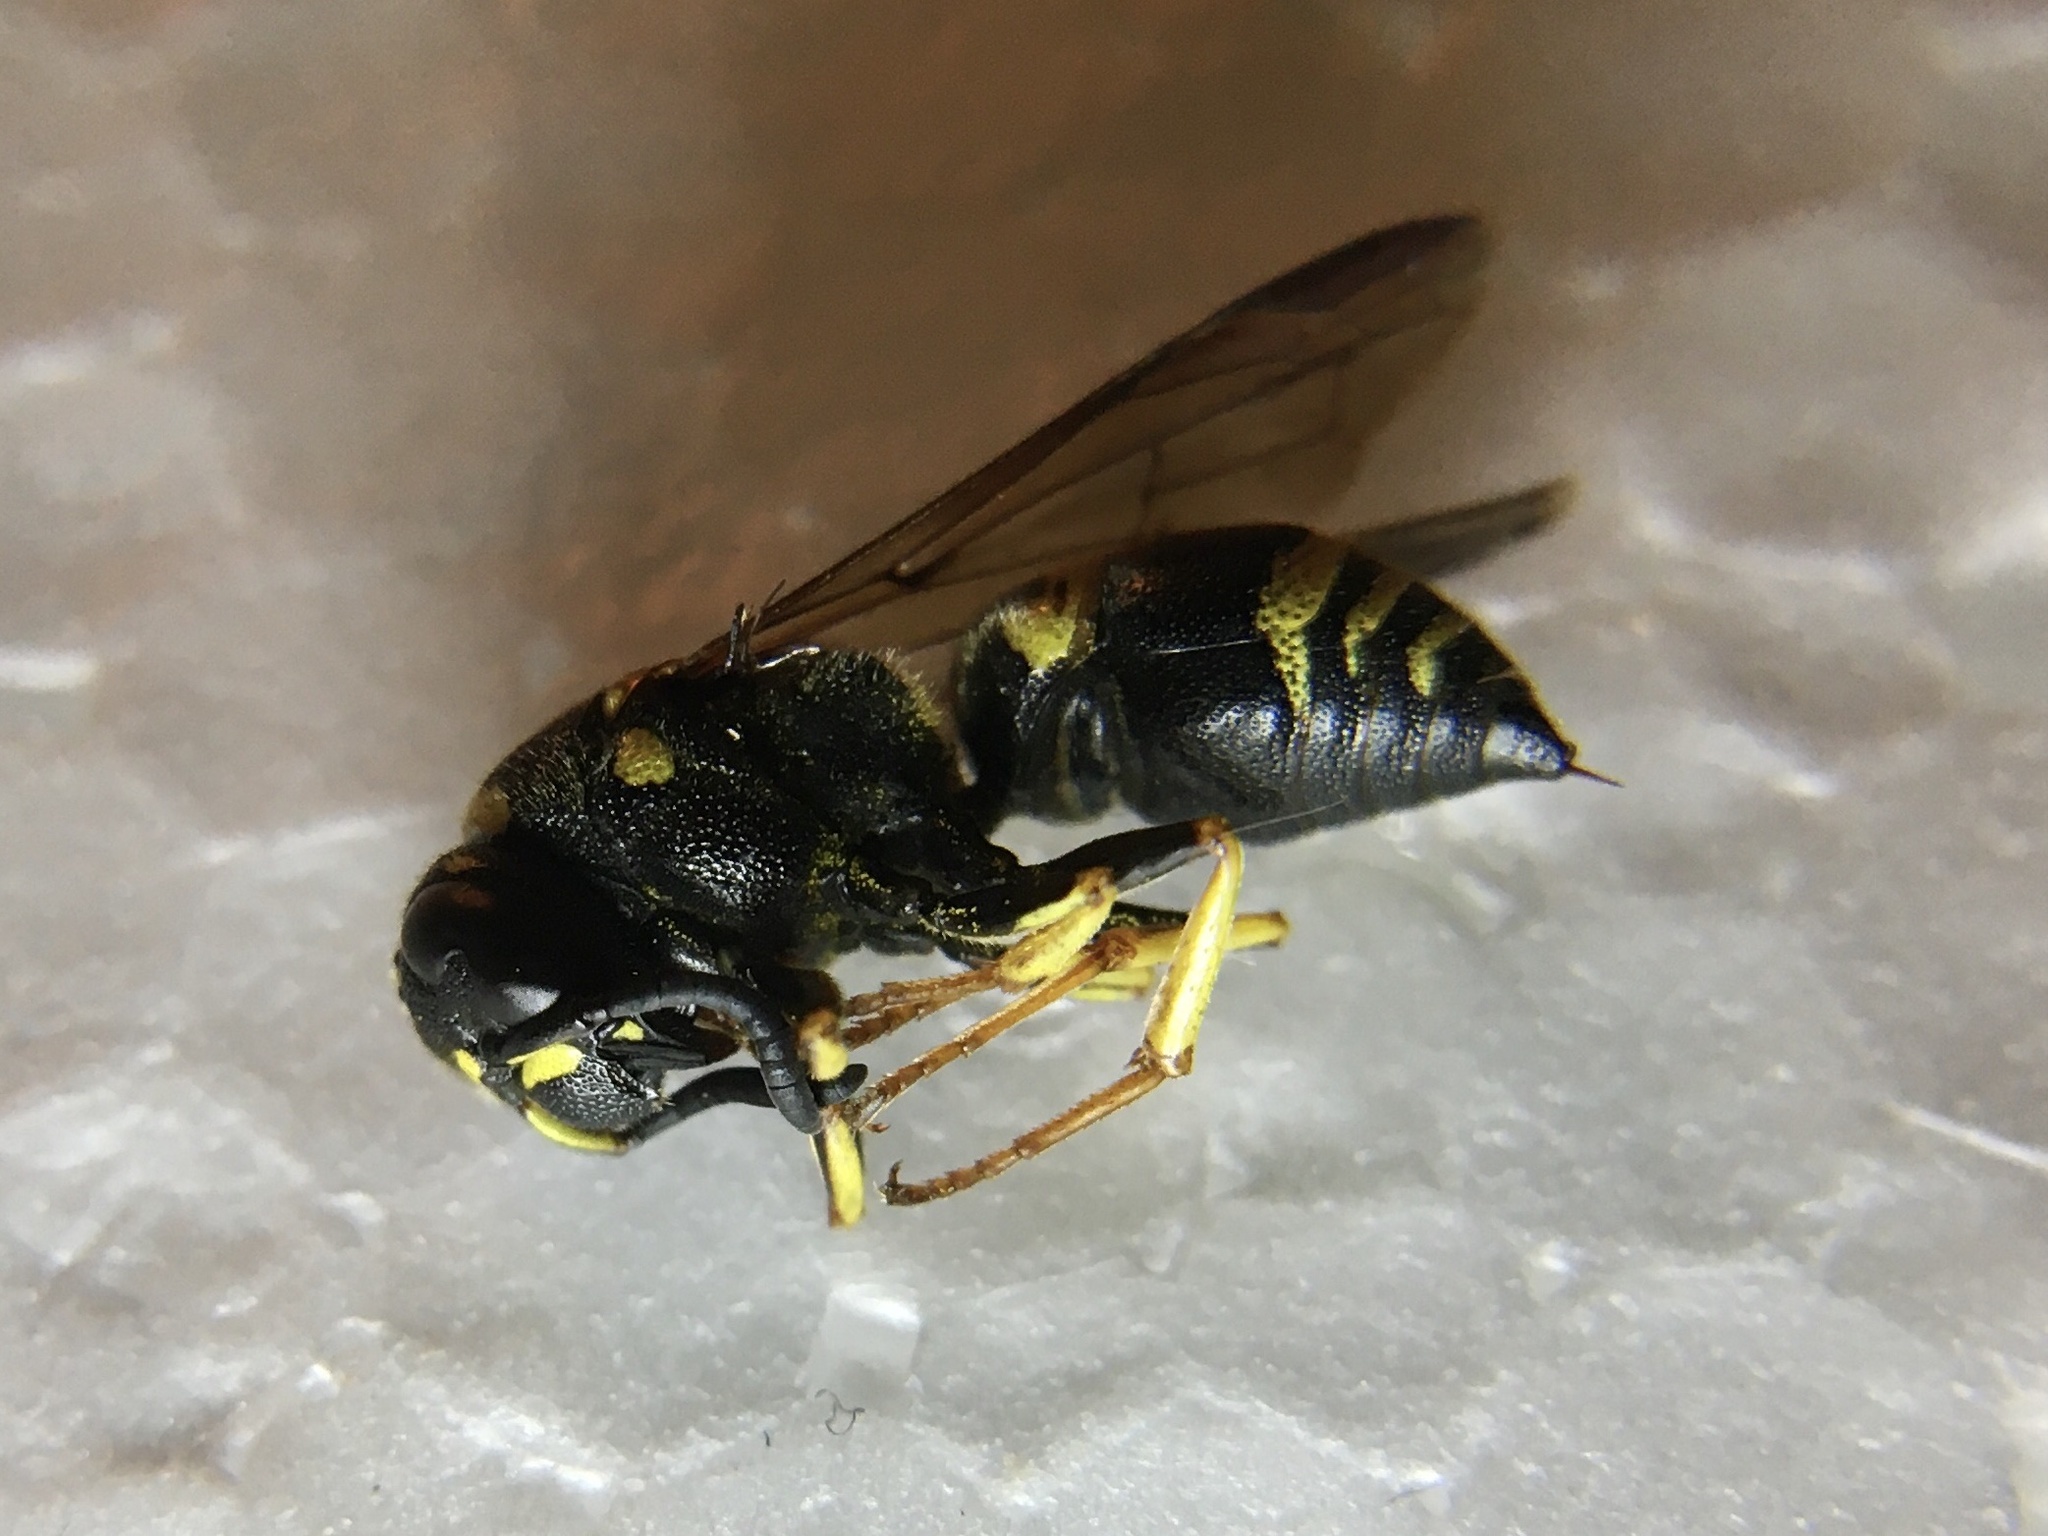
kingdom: Animalia
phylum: Arthropoda
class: Insecta
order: Hymenoptera
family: Eumenidae
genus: Euodynerus
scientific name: Euodynerus foraminatus
